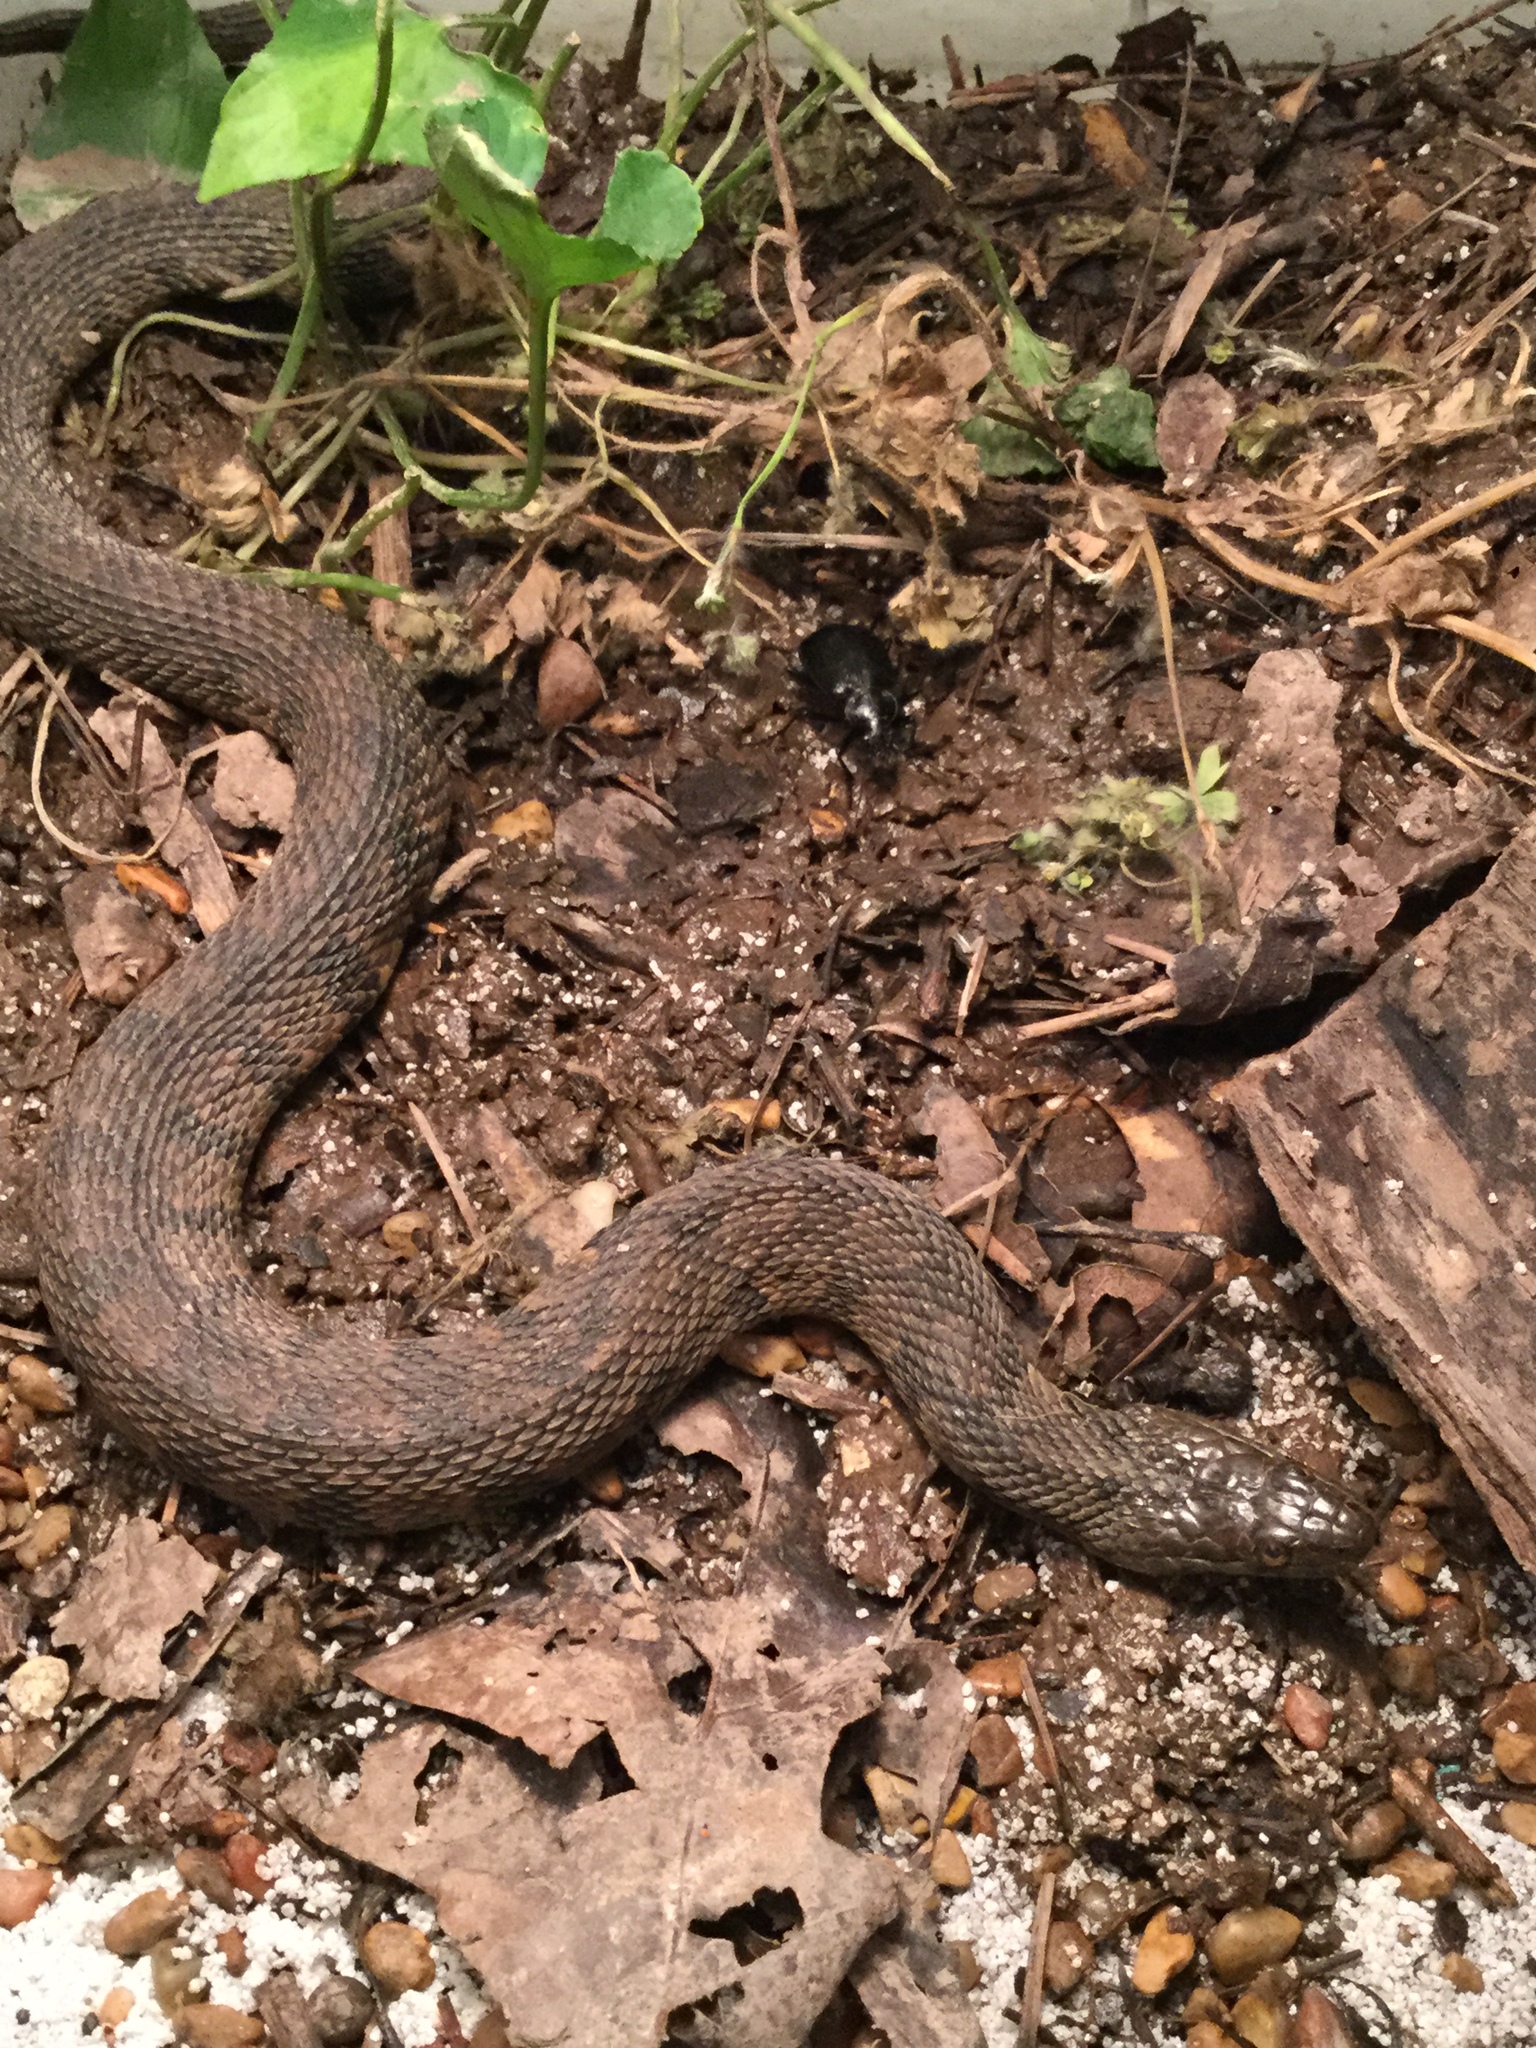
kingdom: Animalia
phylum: Chordata
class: Squamata
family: Colubridae
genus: Nerodia
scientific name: Nerodia rhombifer
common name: Diamondback water snake
